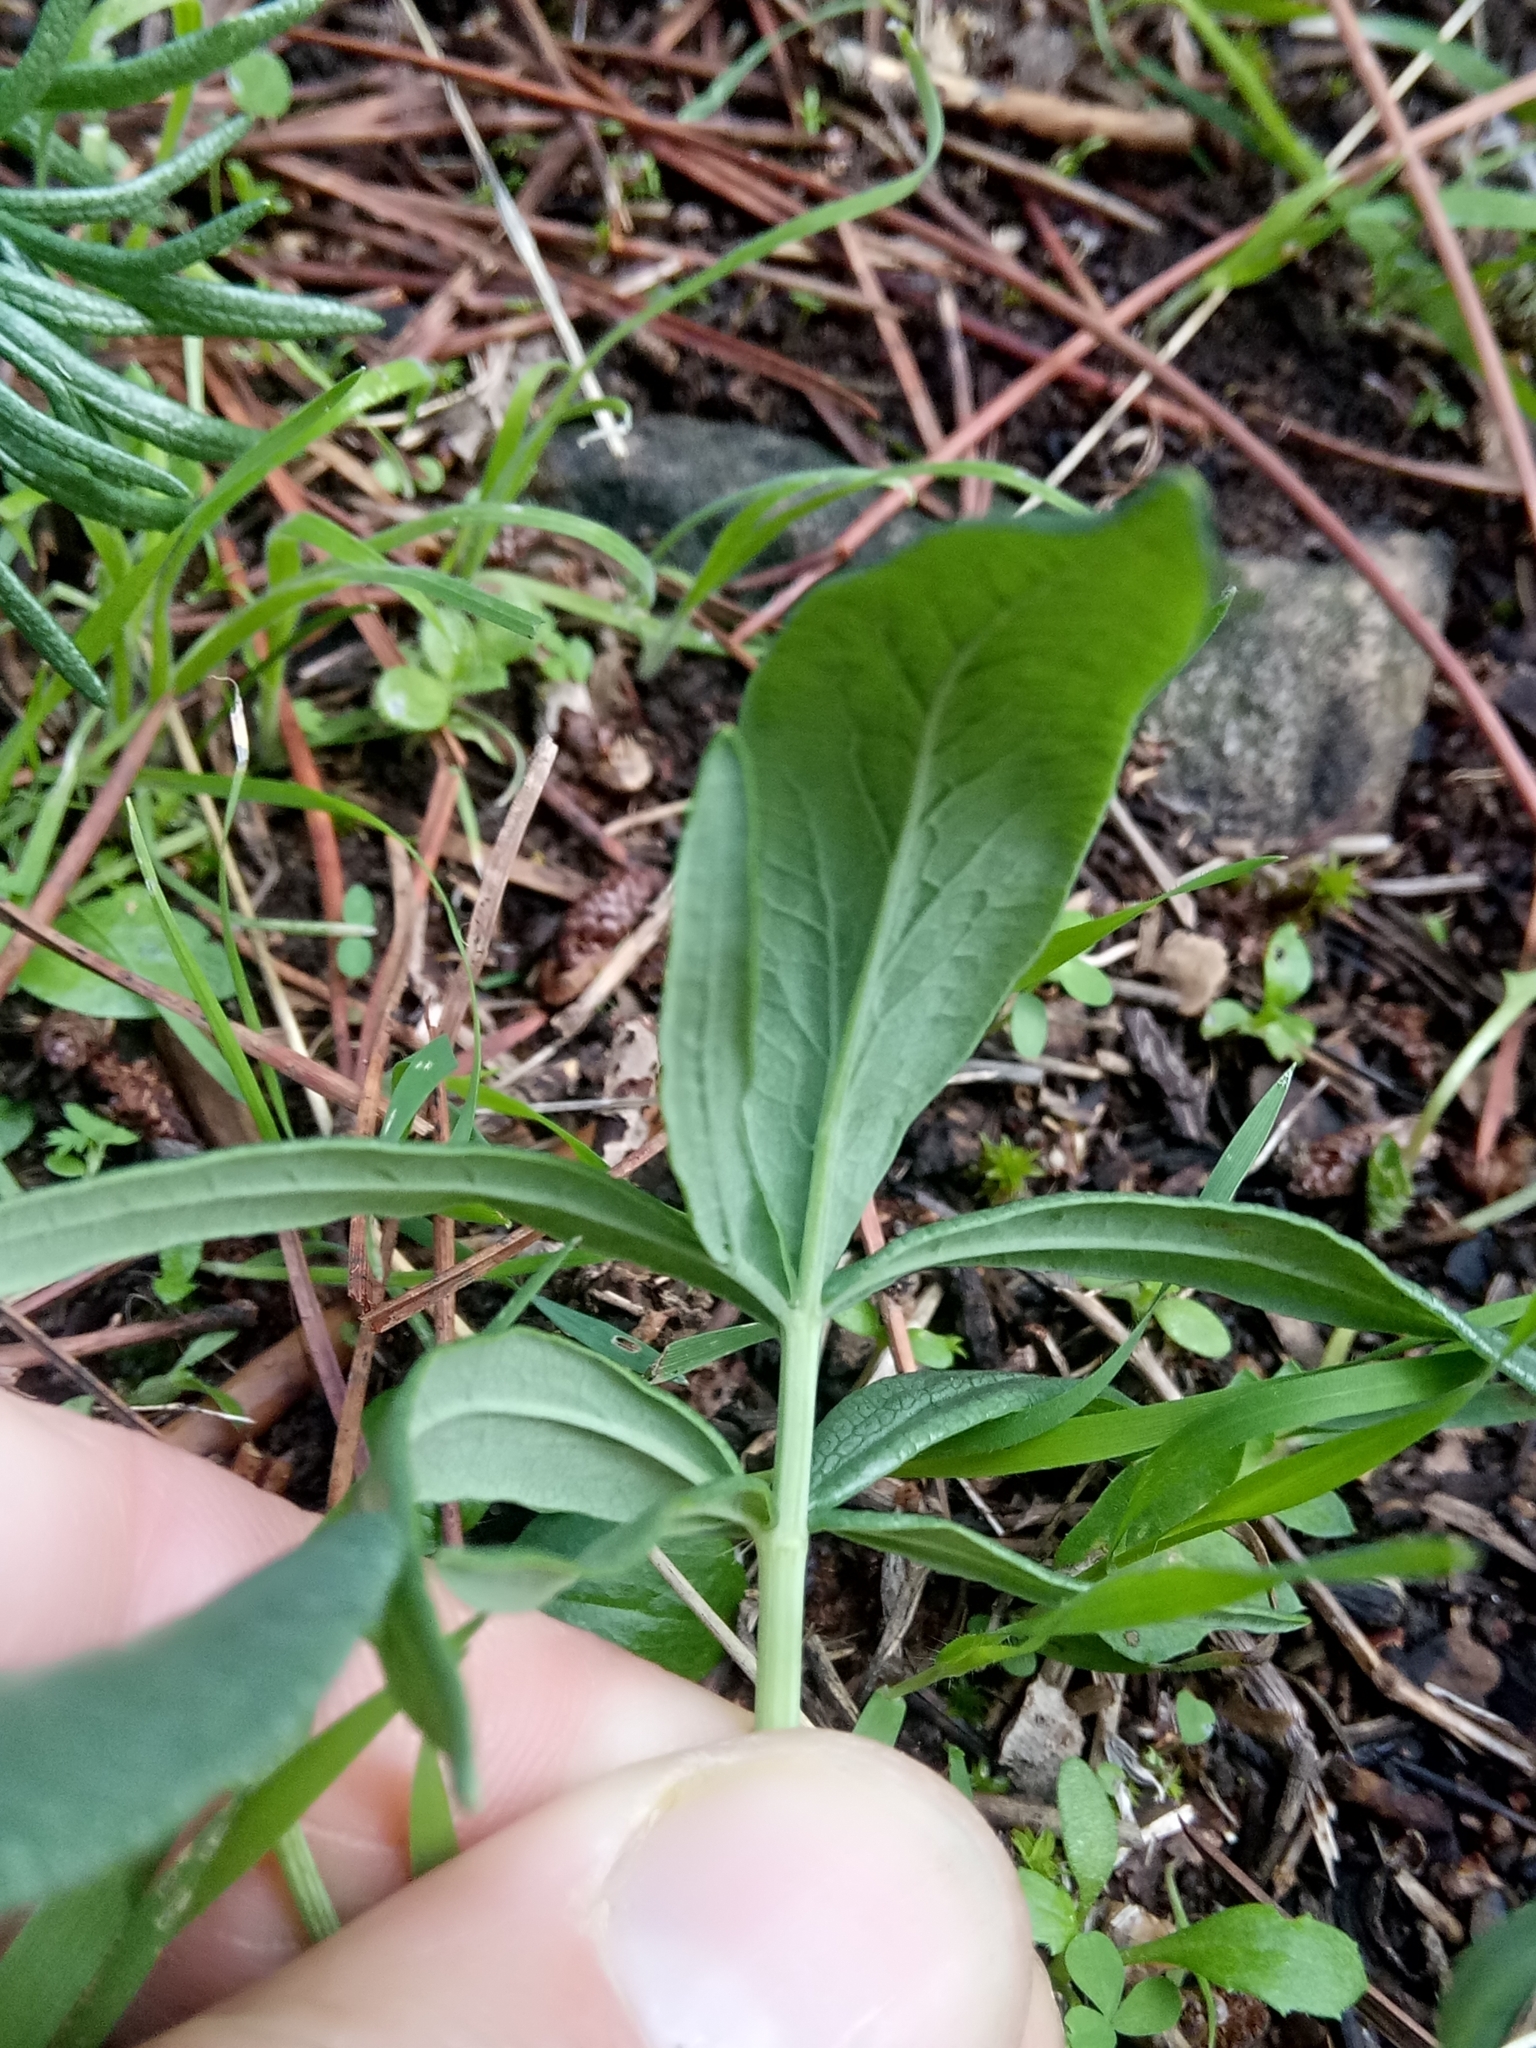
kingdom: Plantae
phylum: Tracheophyta
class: Magnoliopsida
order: Apiales
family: Apiaceae
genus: Thapsia
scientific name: Thapsia garganica
